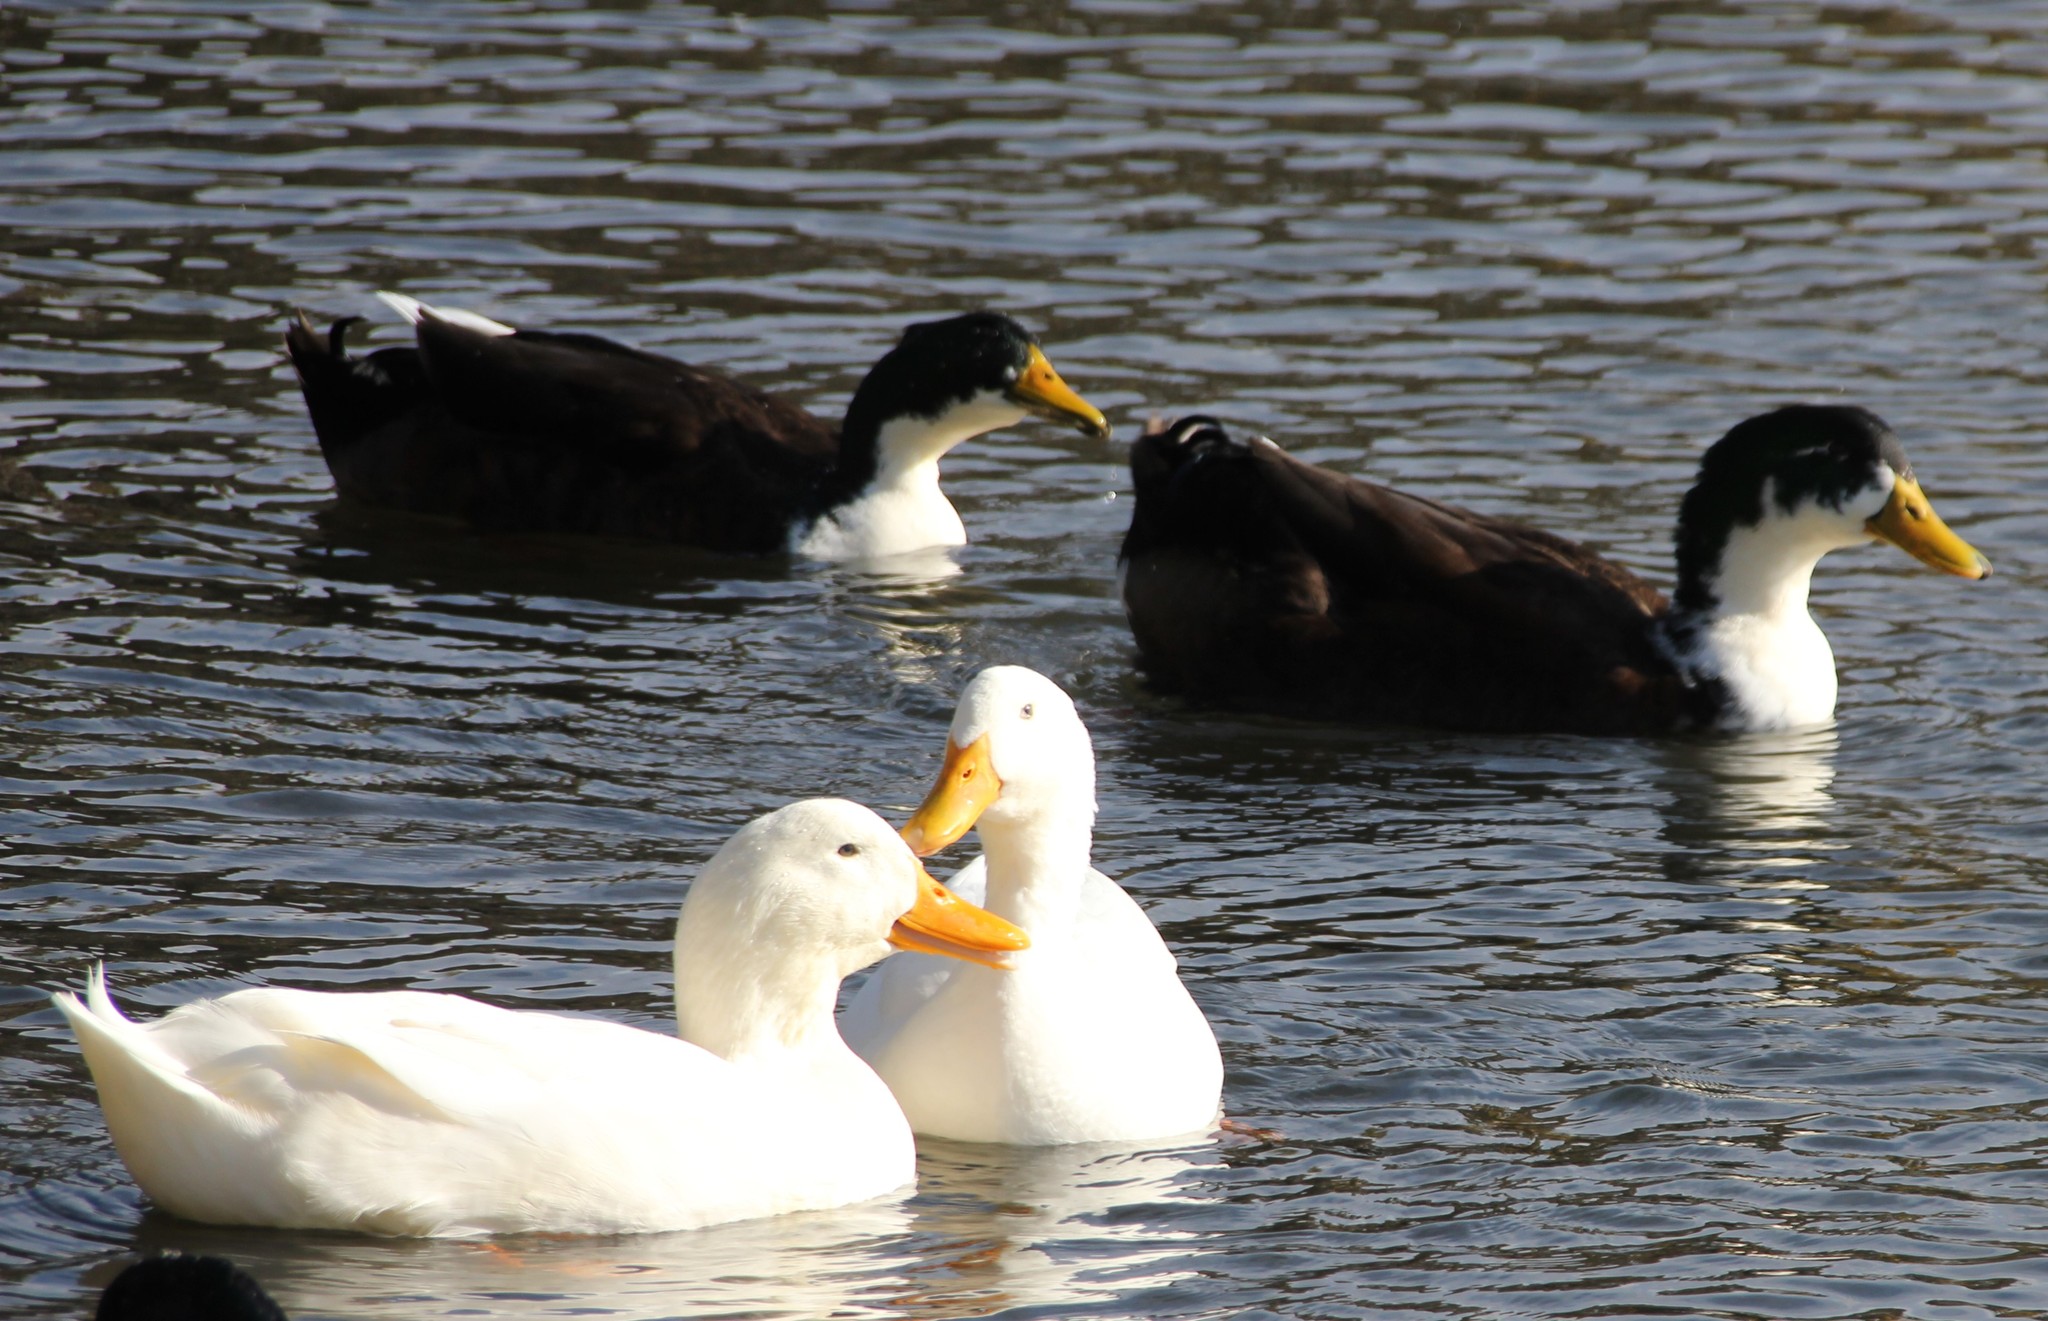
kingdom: Animalia
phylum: Chordata
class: Aves
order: Anseriformes
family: Anatidae
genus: Anas
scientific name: Anas platyrhynchos
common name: Mallard
